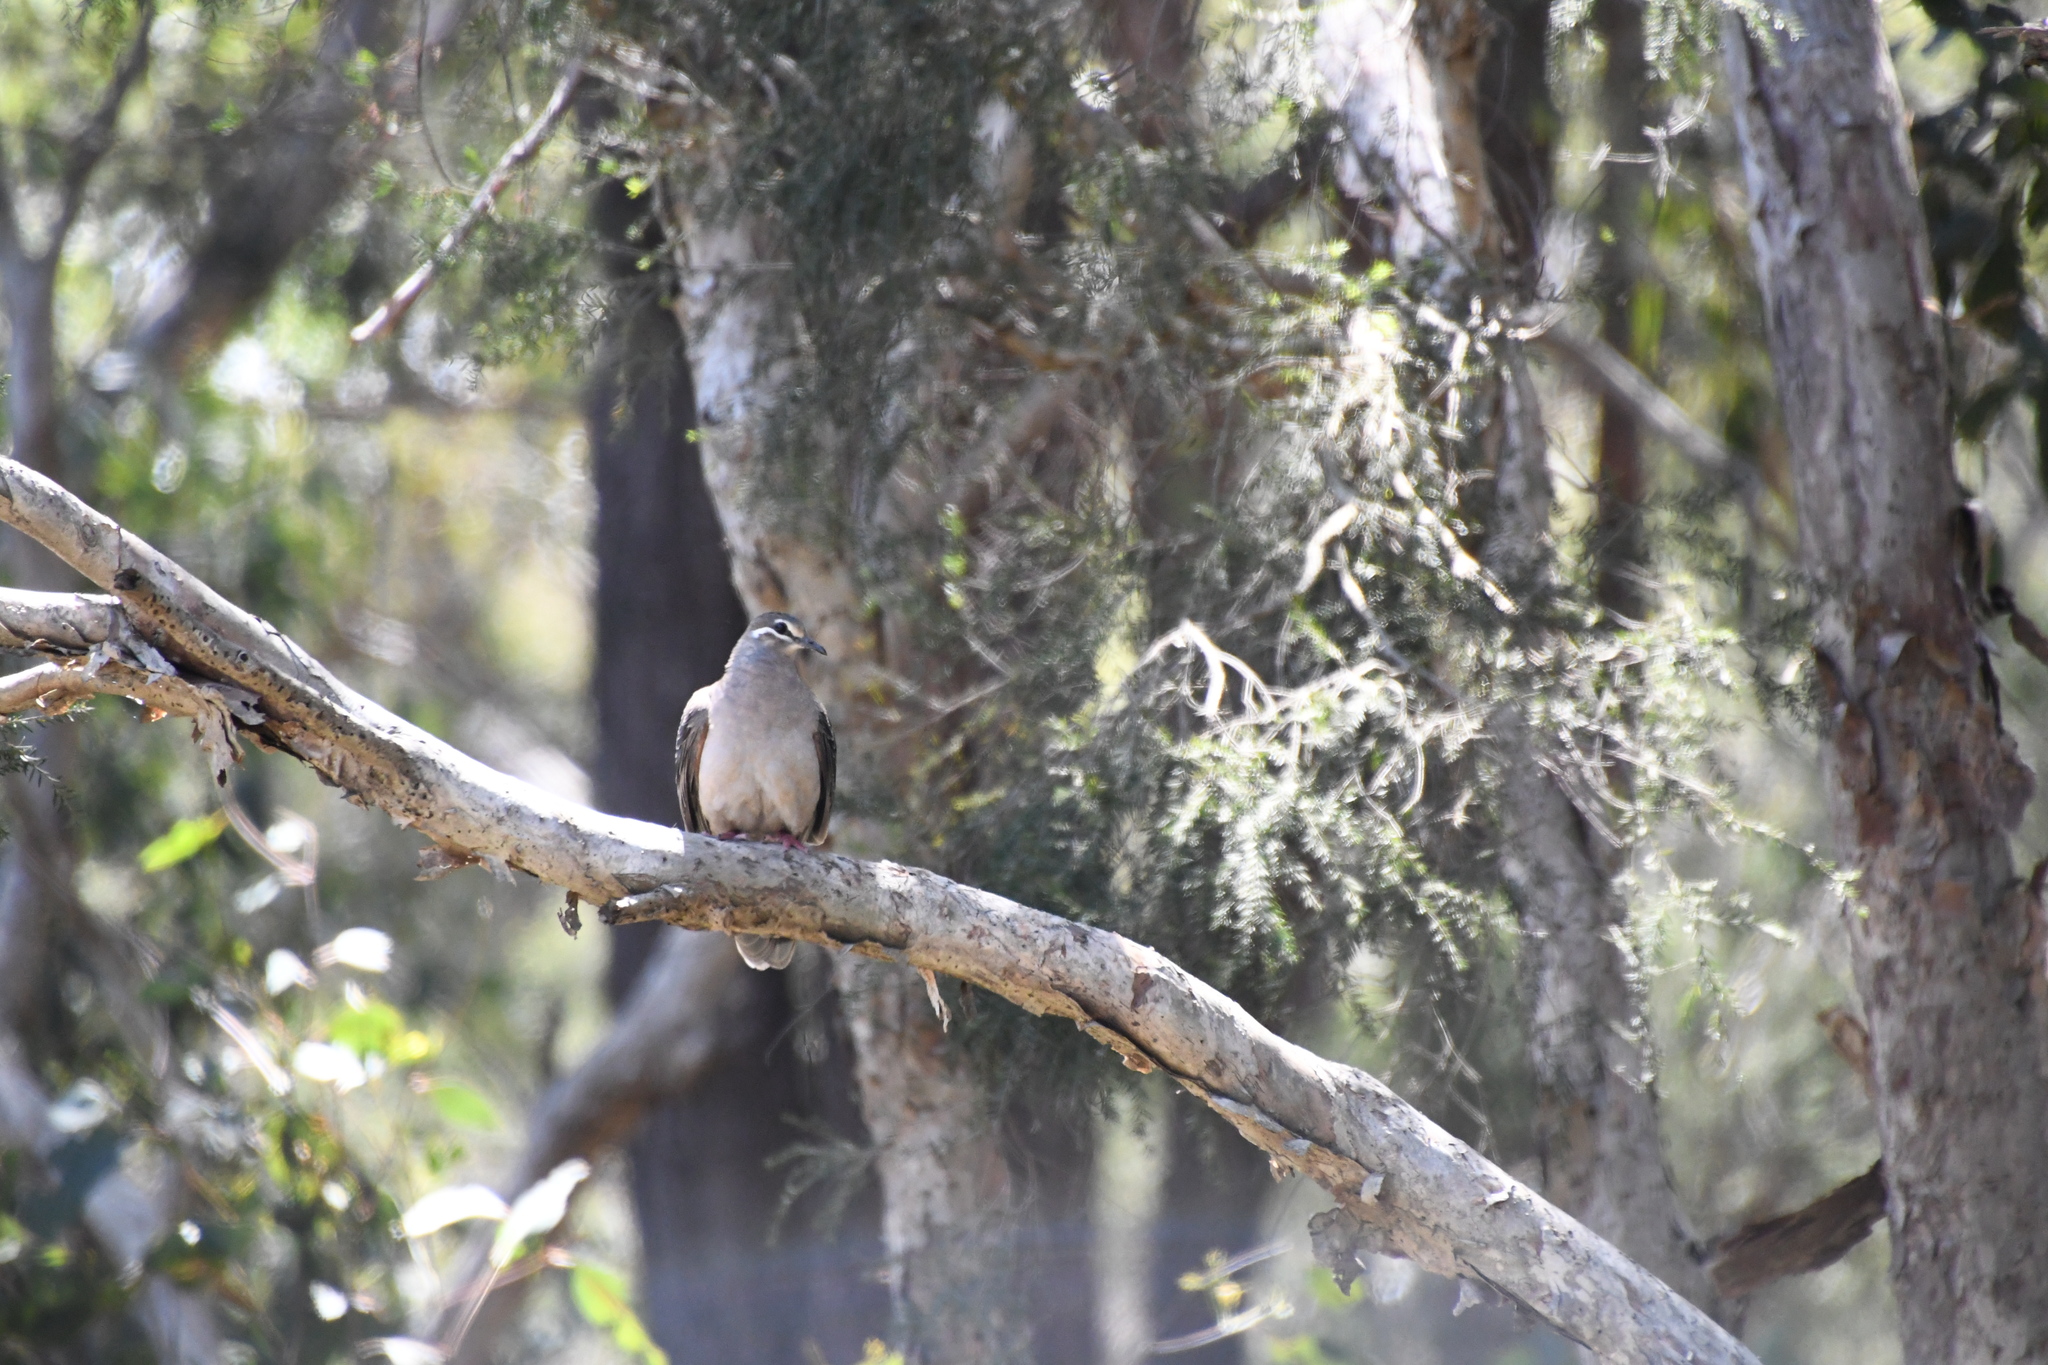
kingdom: Animalia
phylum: Chordata
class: Aves
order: Columbiformes
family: Columbidae
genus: Phaps
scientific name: Phaps chalcoptera
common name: Common bronzewing
